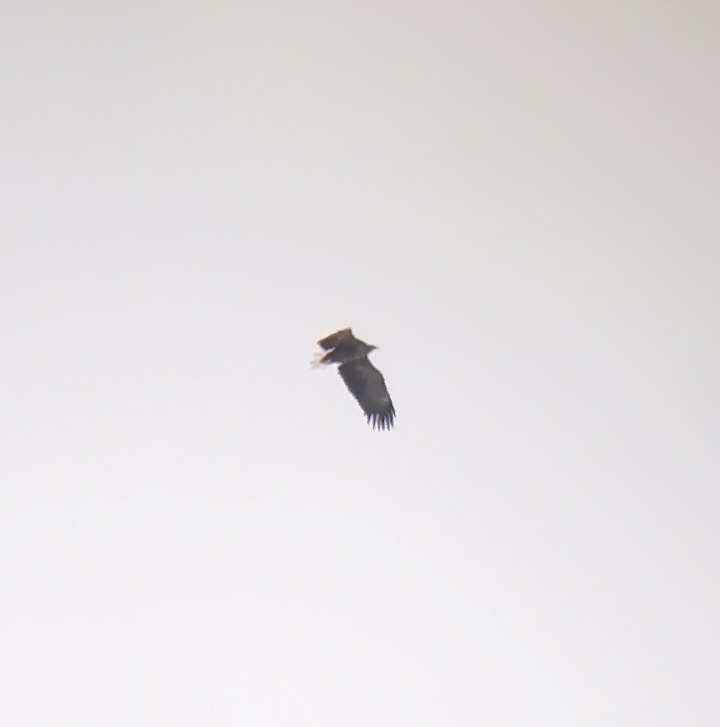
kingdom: Animalia
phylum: Chordata
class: Aves
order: Accipitriformes
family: Accipitridae
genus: Haliaeetus
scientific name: Haliaeetus albicilla
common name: White-tailed eagle
